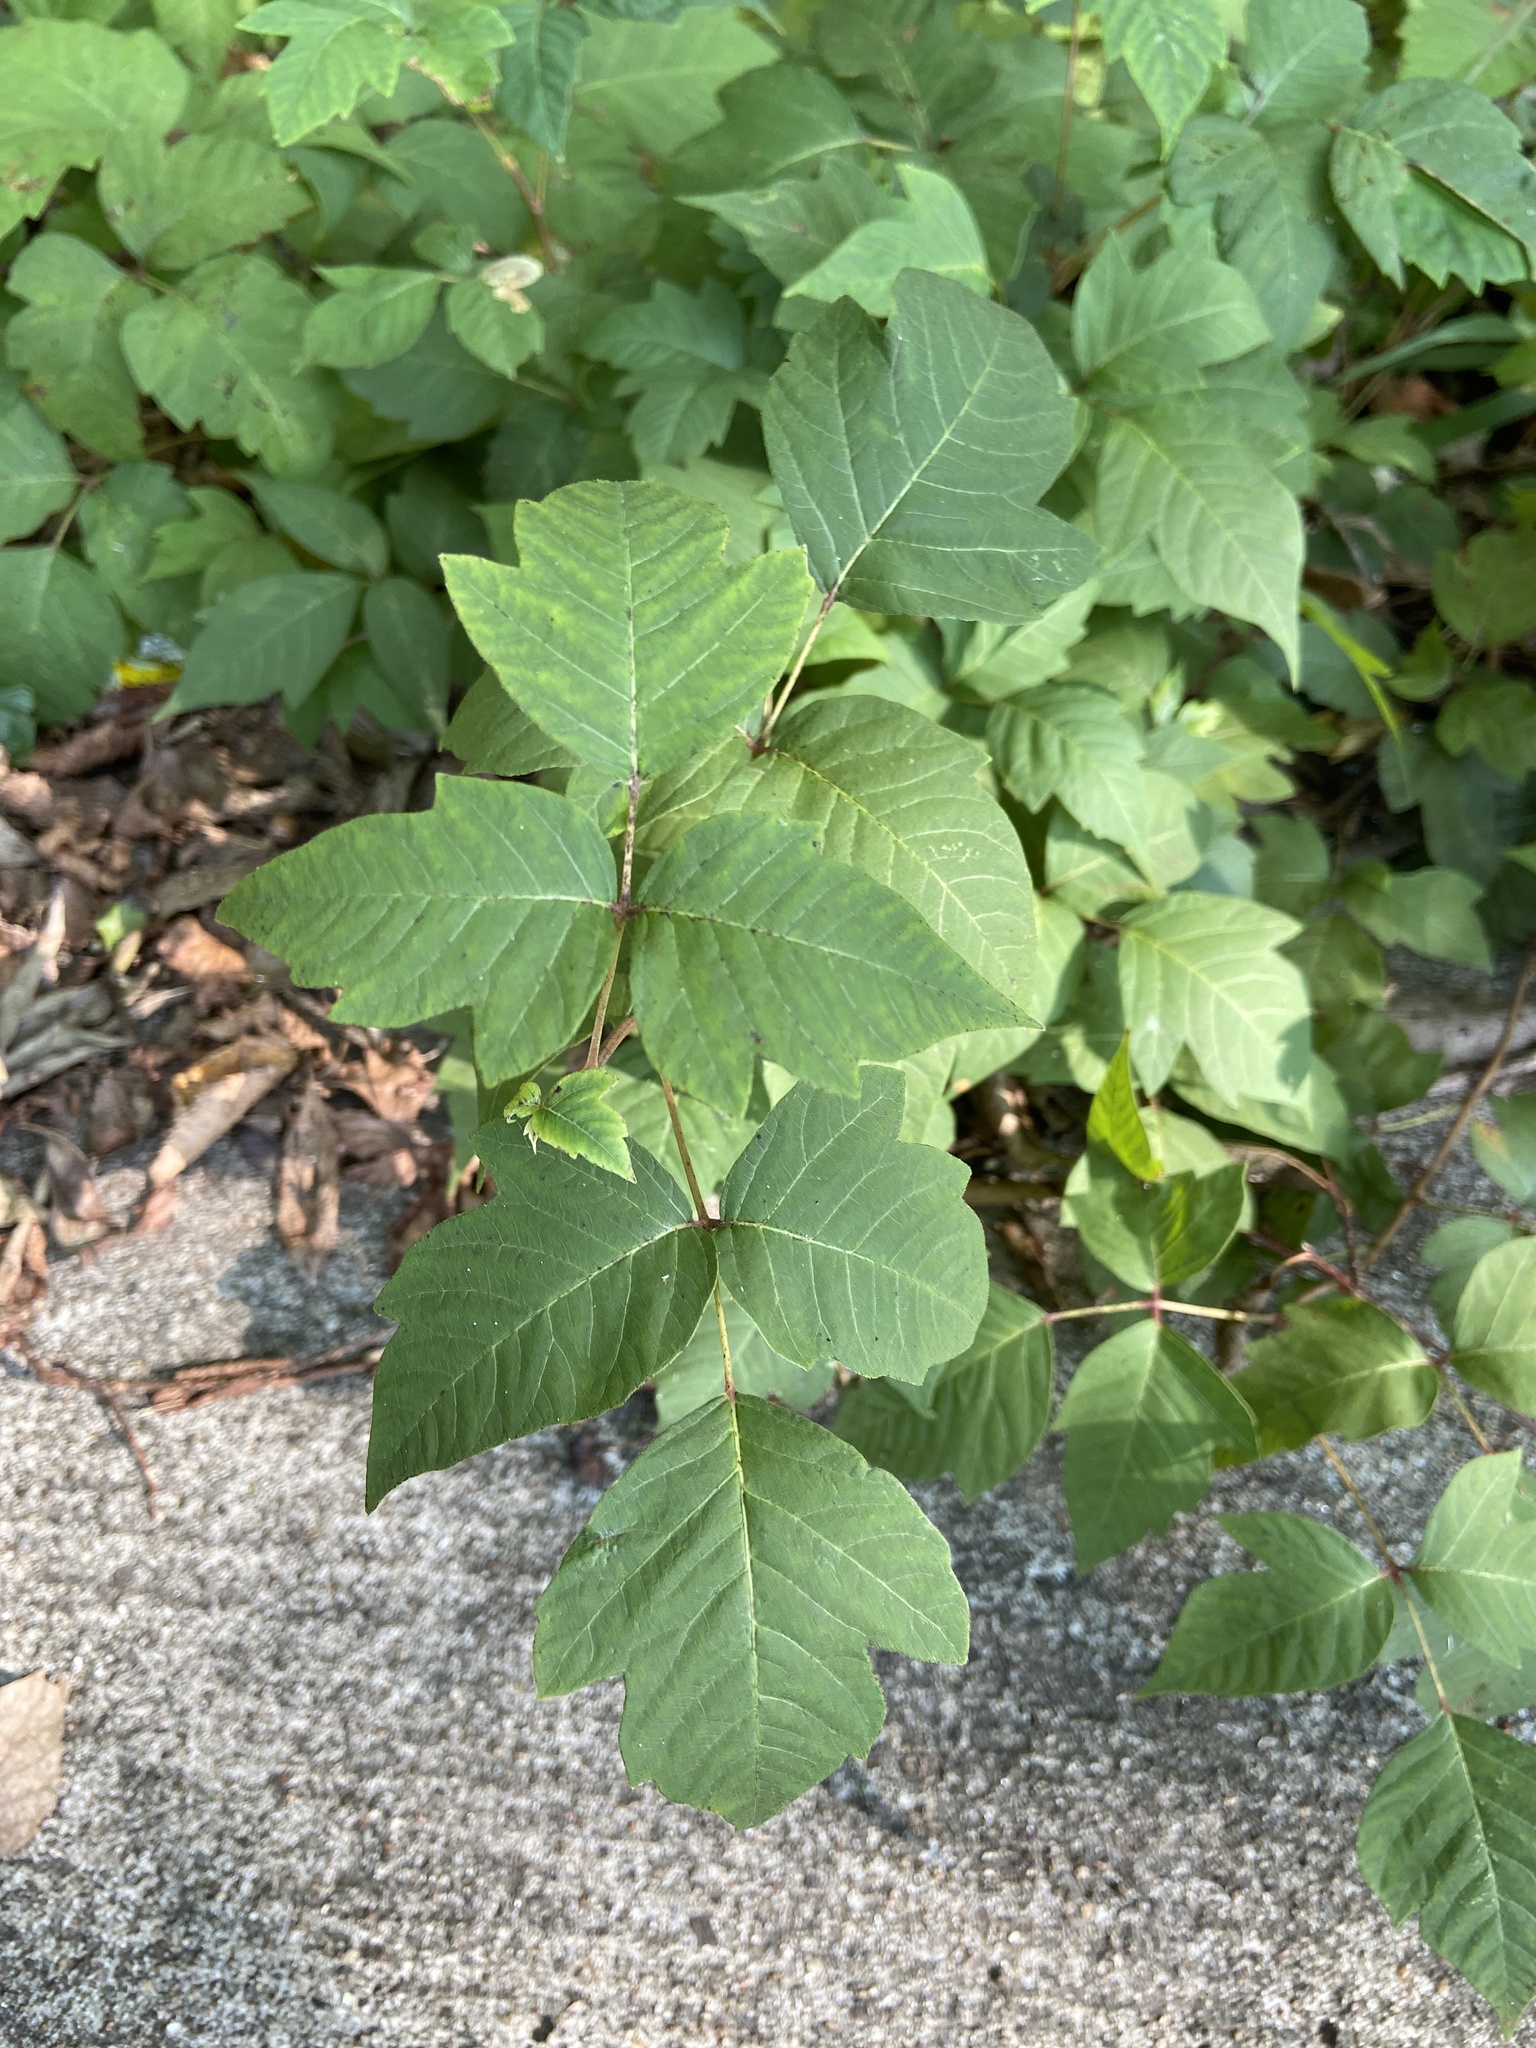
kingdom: Plantae
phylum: Tracheophyta
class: Magnoliopsida
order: Sapindales
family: Anacardiaceae
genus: Toxicodendron
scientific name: Toxicodendron radicans
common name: Poison ivy
